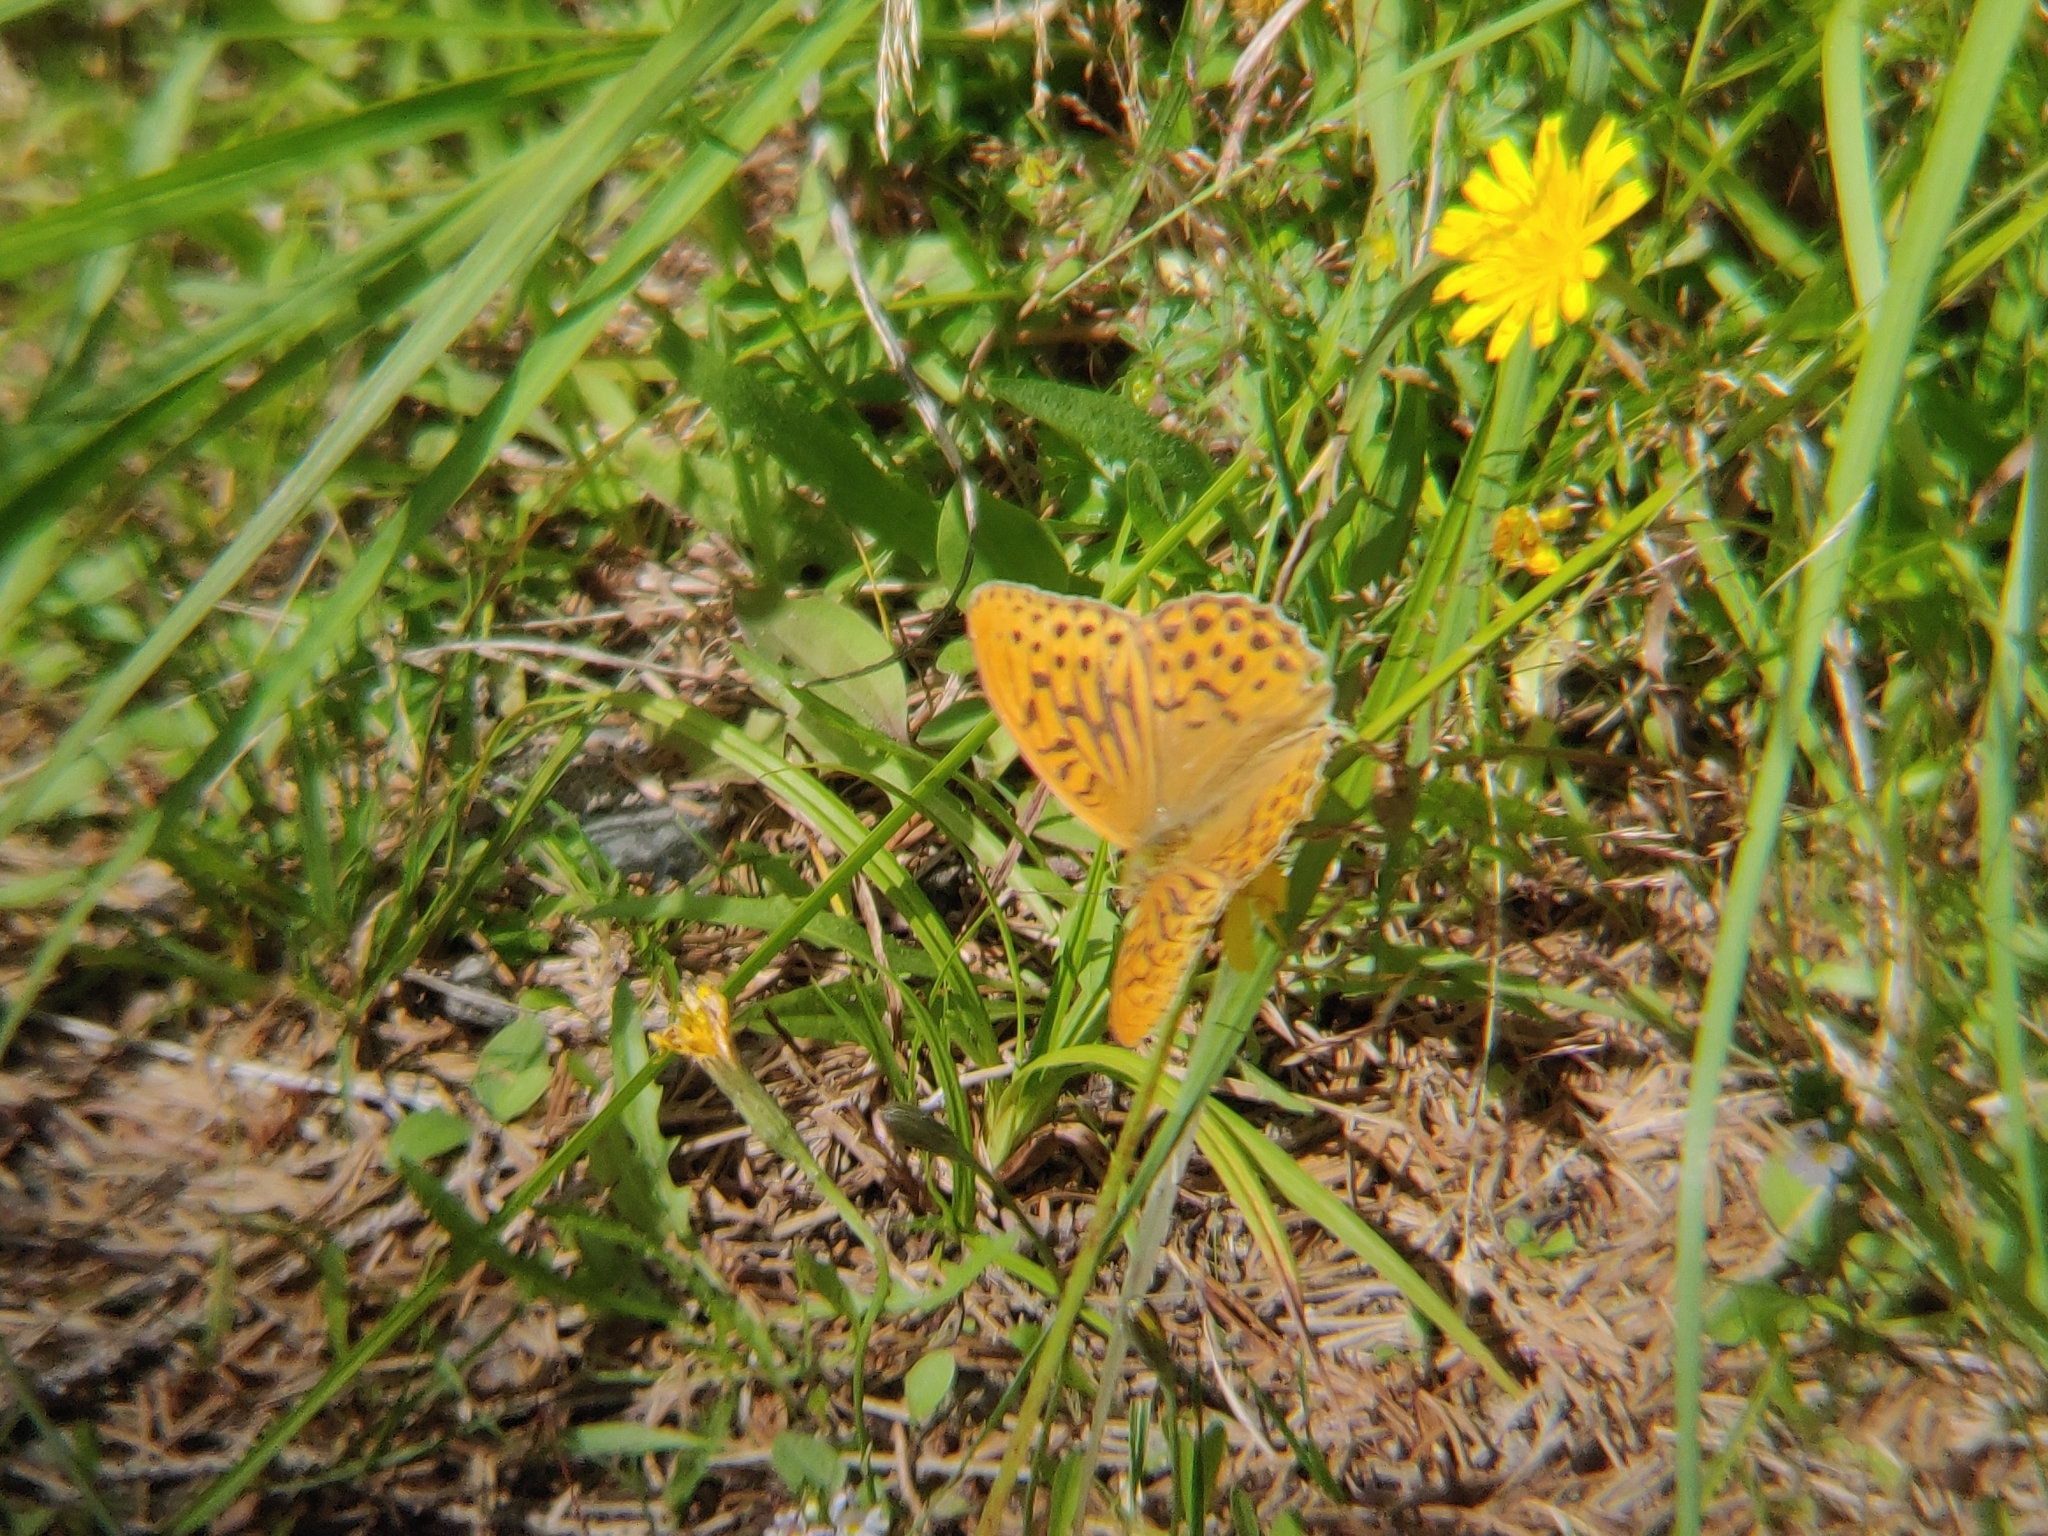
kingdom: Animalia
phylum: Arthropoda
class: Insecta
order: Lepidoptera
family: Nymphalidae
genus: Argynnis
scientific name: Argynnis paphia
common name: Silver-washed fritillary
